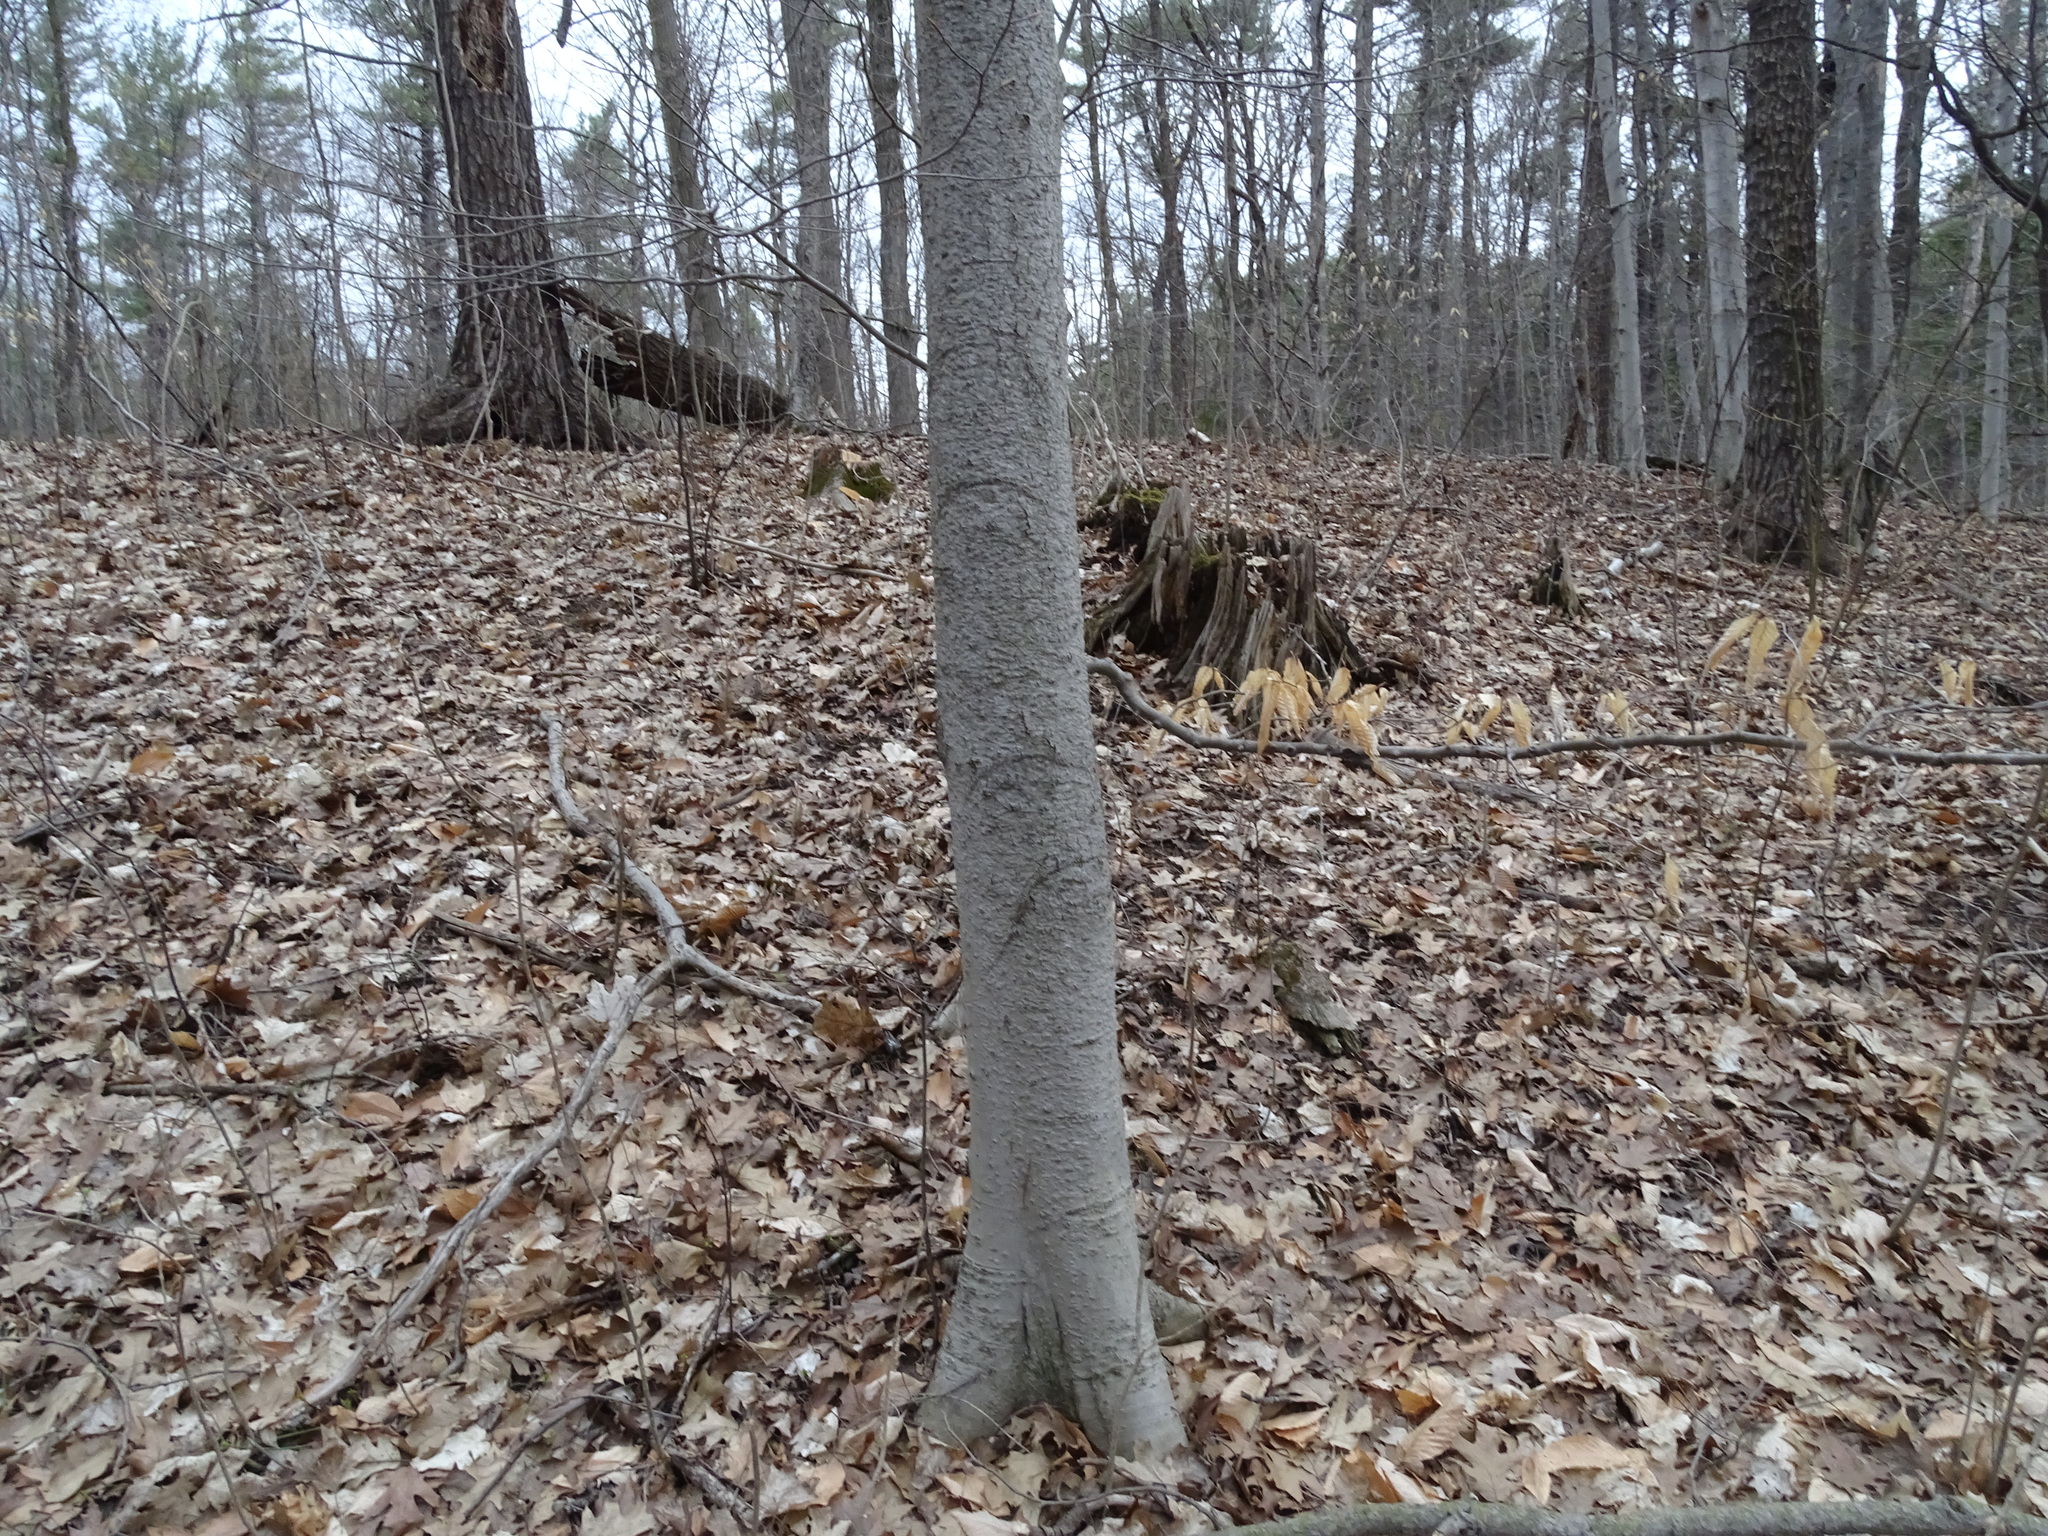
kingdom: Plantae
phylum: Tracheophyta
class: Magnoliopsida
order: Fagales
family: Fagaceae
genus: Fagus
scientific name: Fagus grandifolia
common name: American beech
